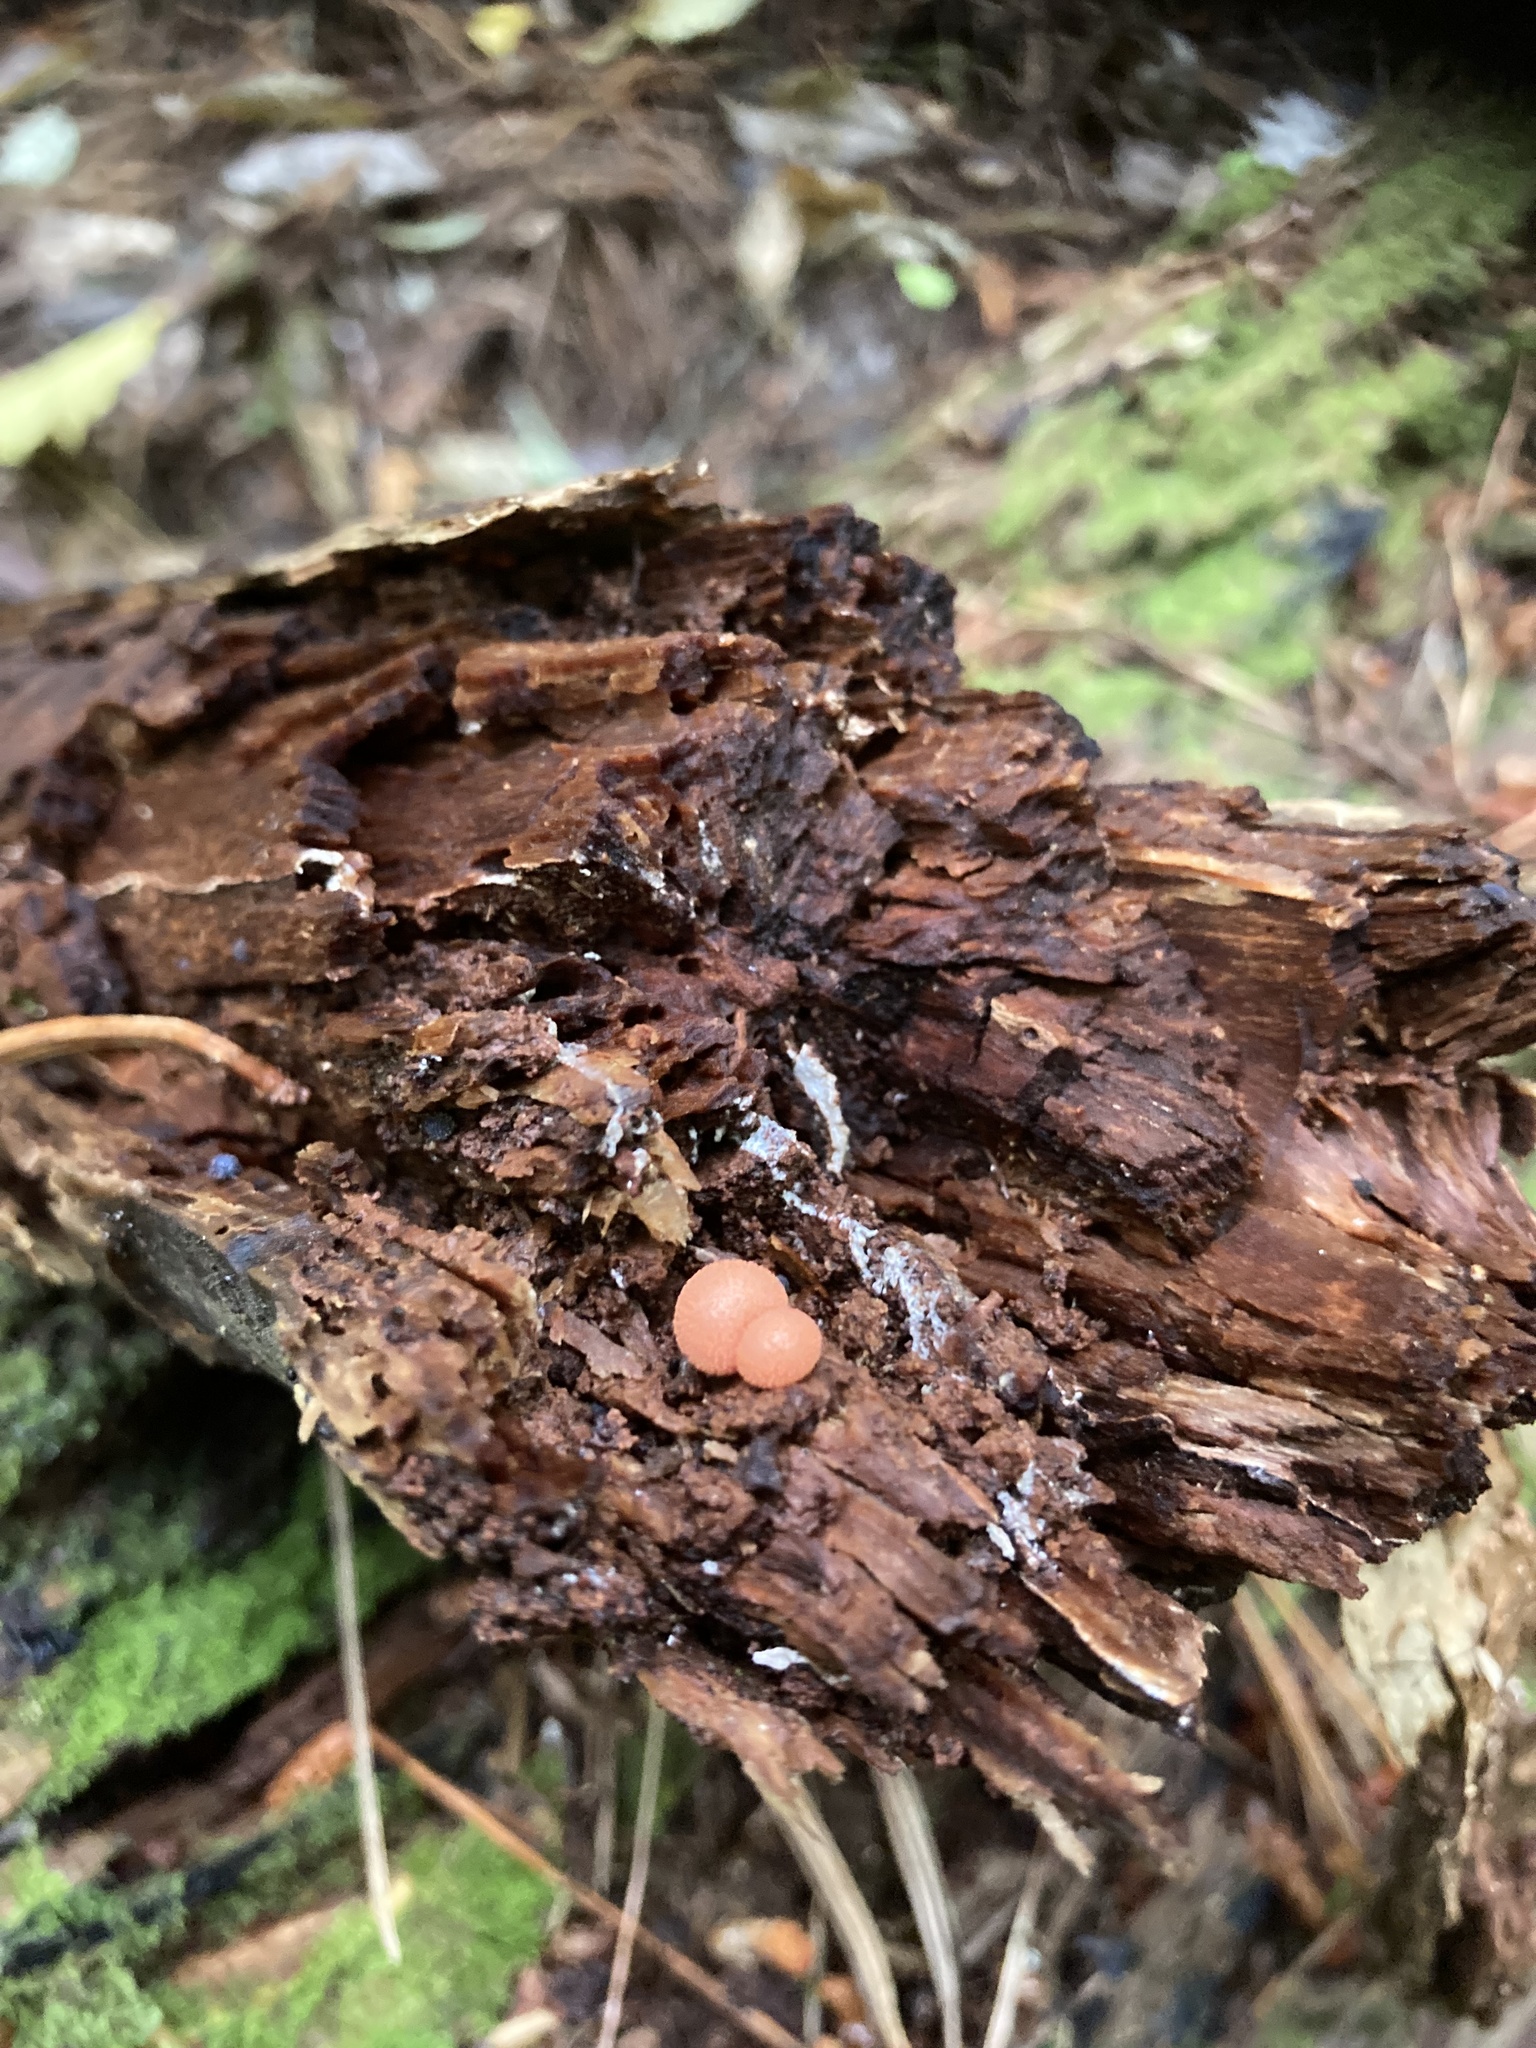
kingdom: Protozoa
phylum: Mycetozoa
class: Myxomycetes
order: Cribrariales
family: Tubiferaceae
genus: Lycogala
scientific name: Lycogala epidendrum
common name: Wolf's milk
